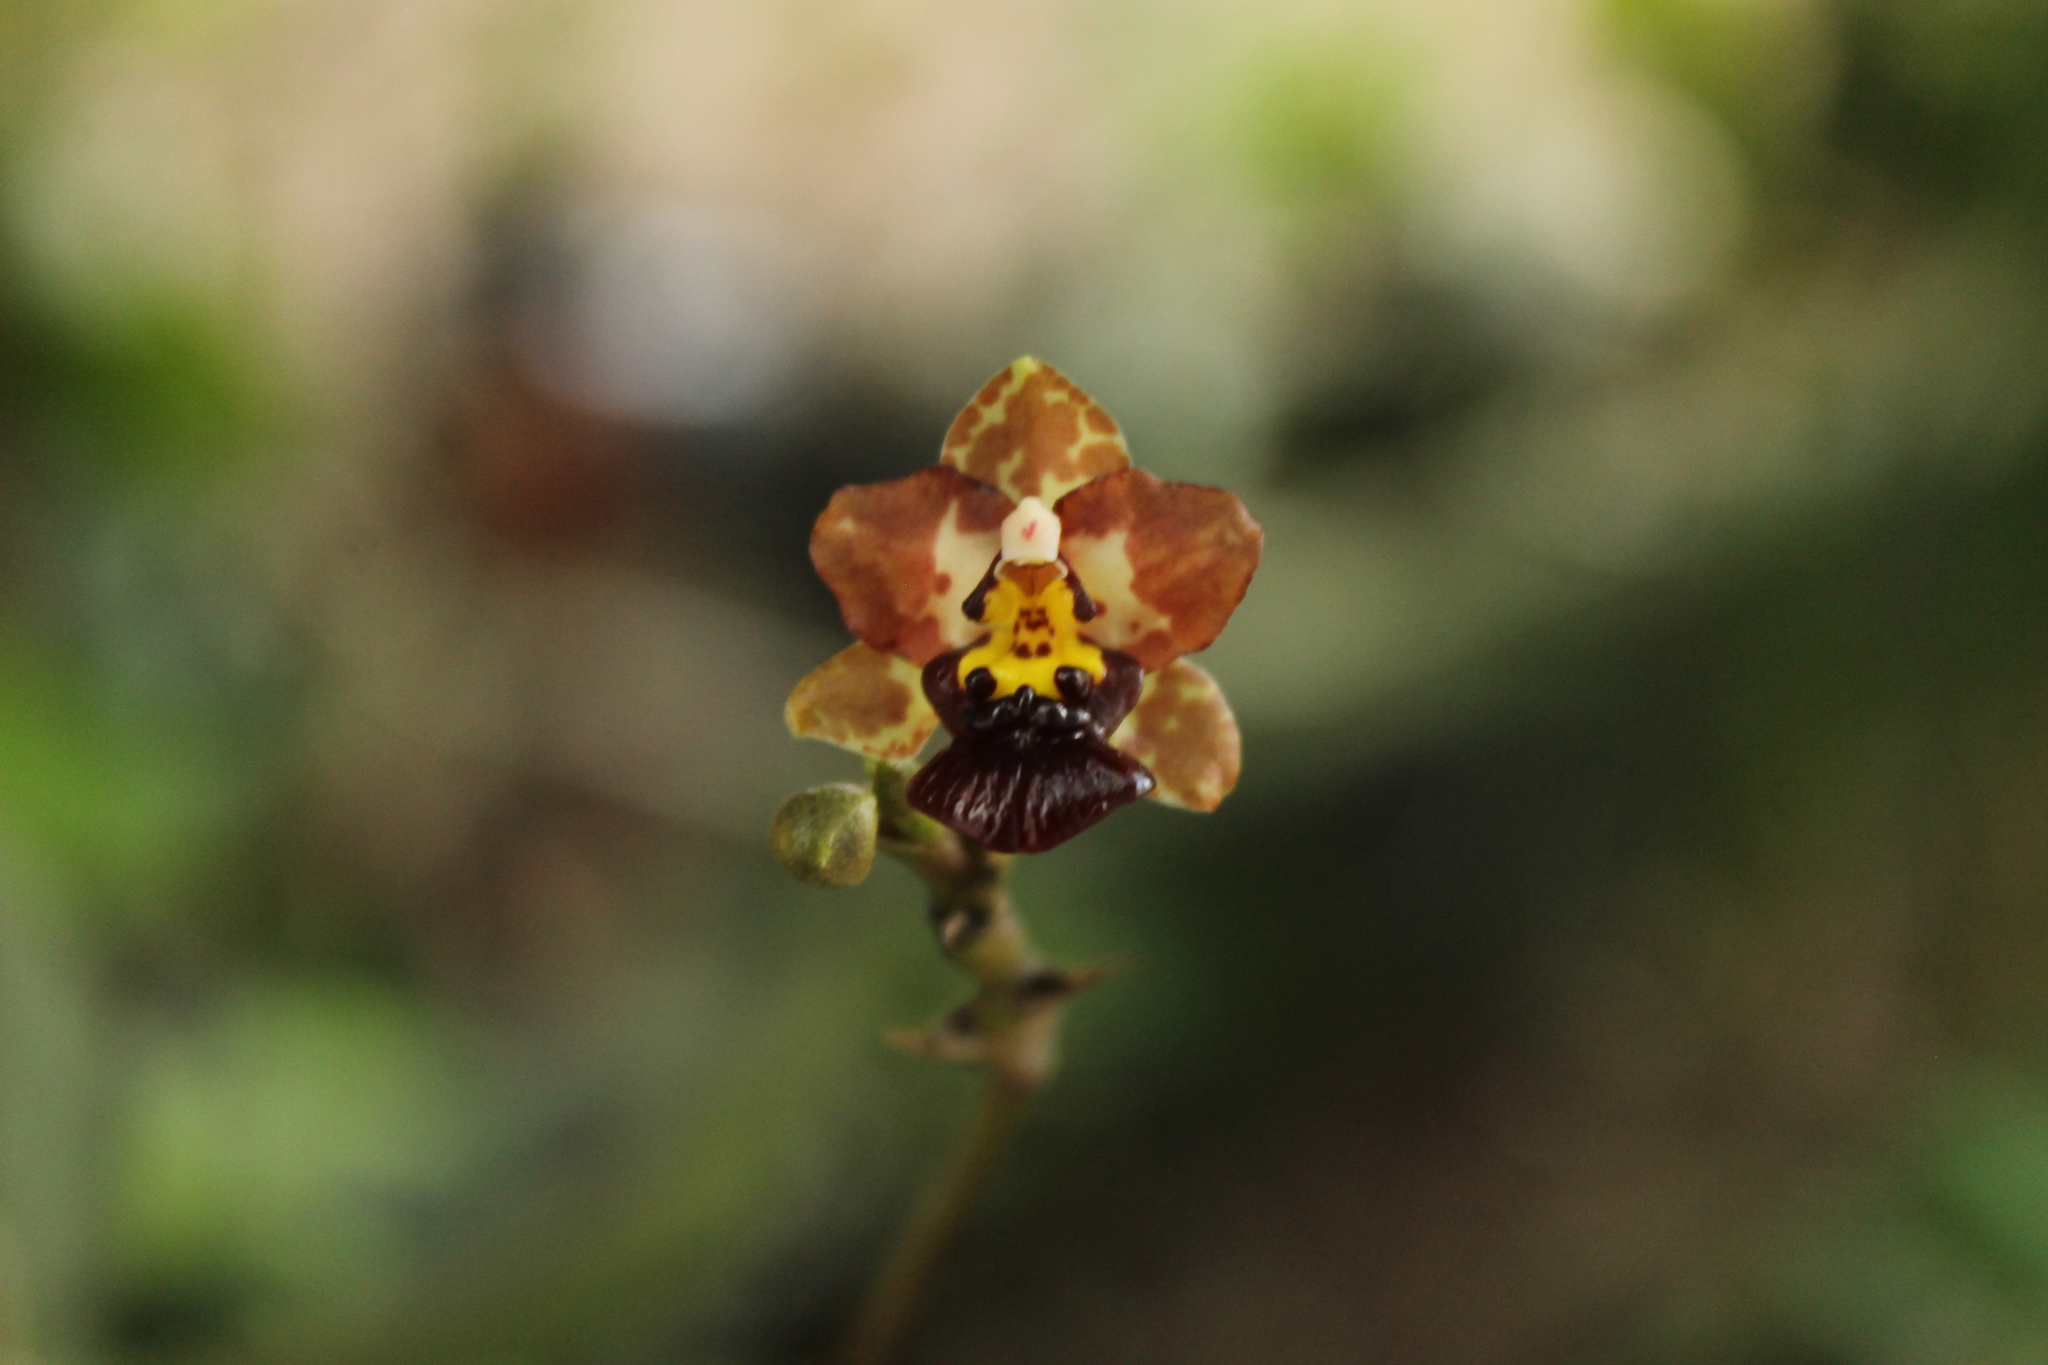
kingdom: Plantae
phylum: Tracheophyta
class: Liliopsida
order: Asparagales
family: Orchidaceae
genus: Trichocentrum
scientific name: Trichocentrum lindenii
